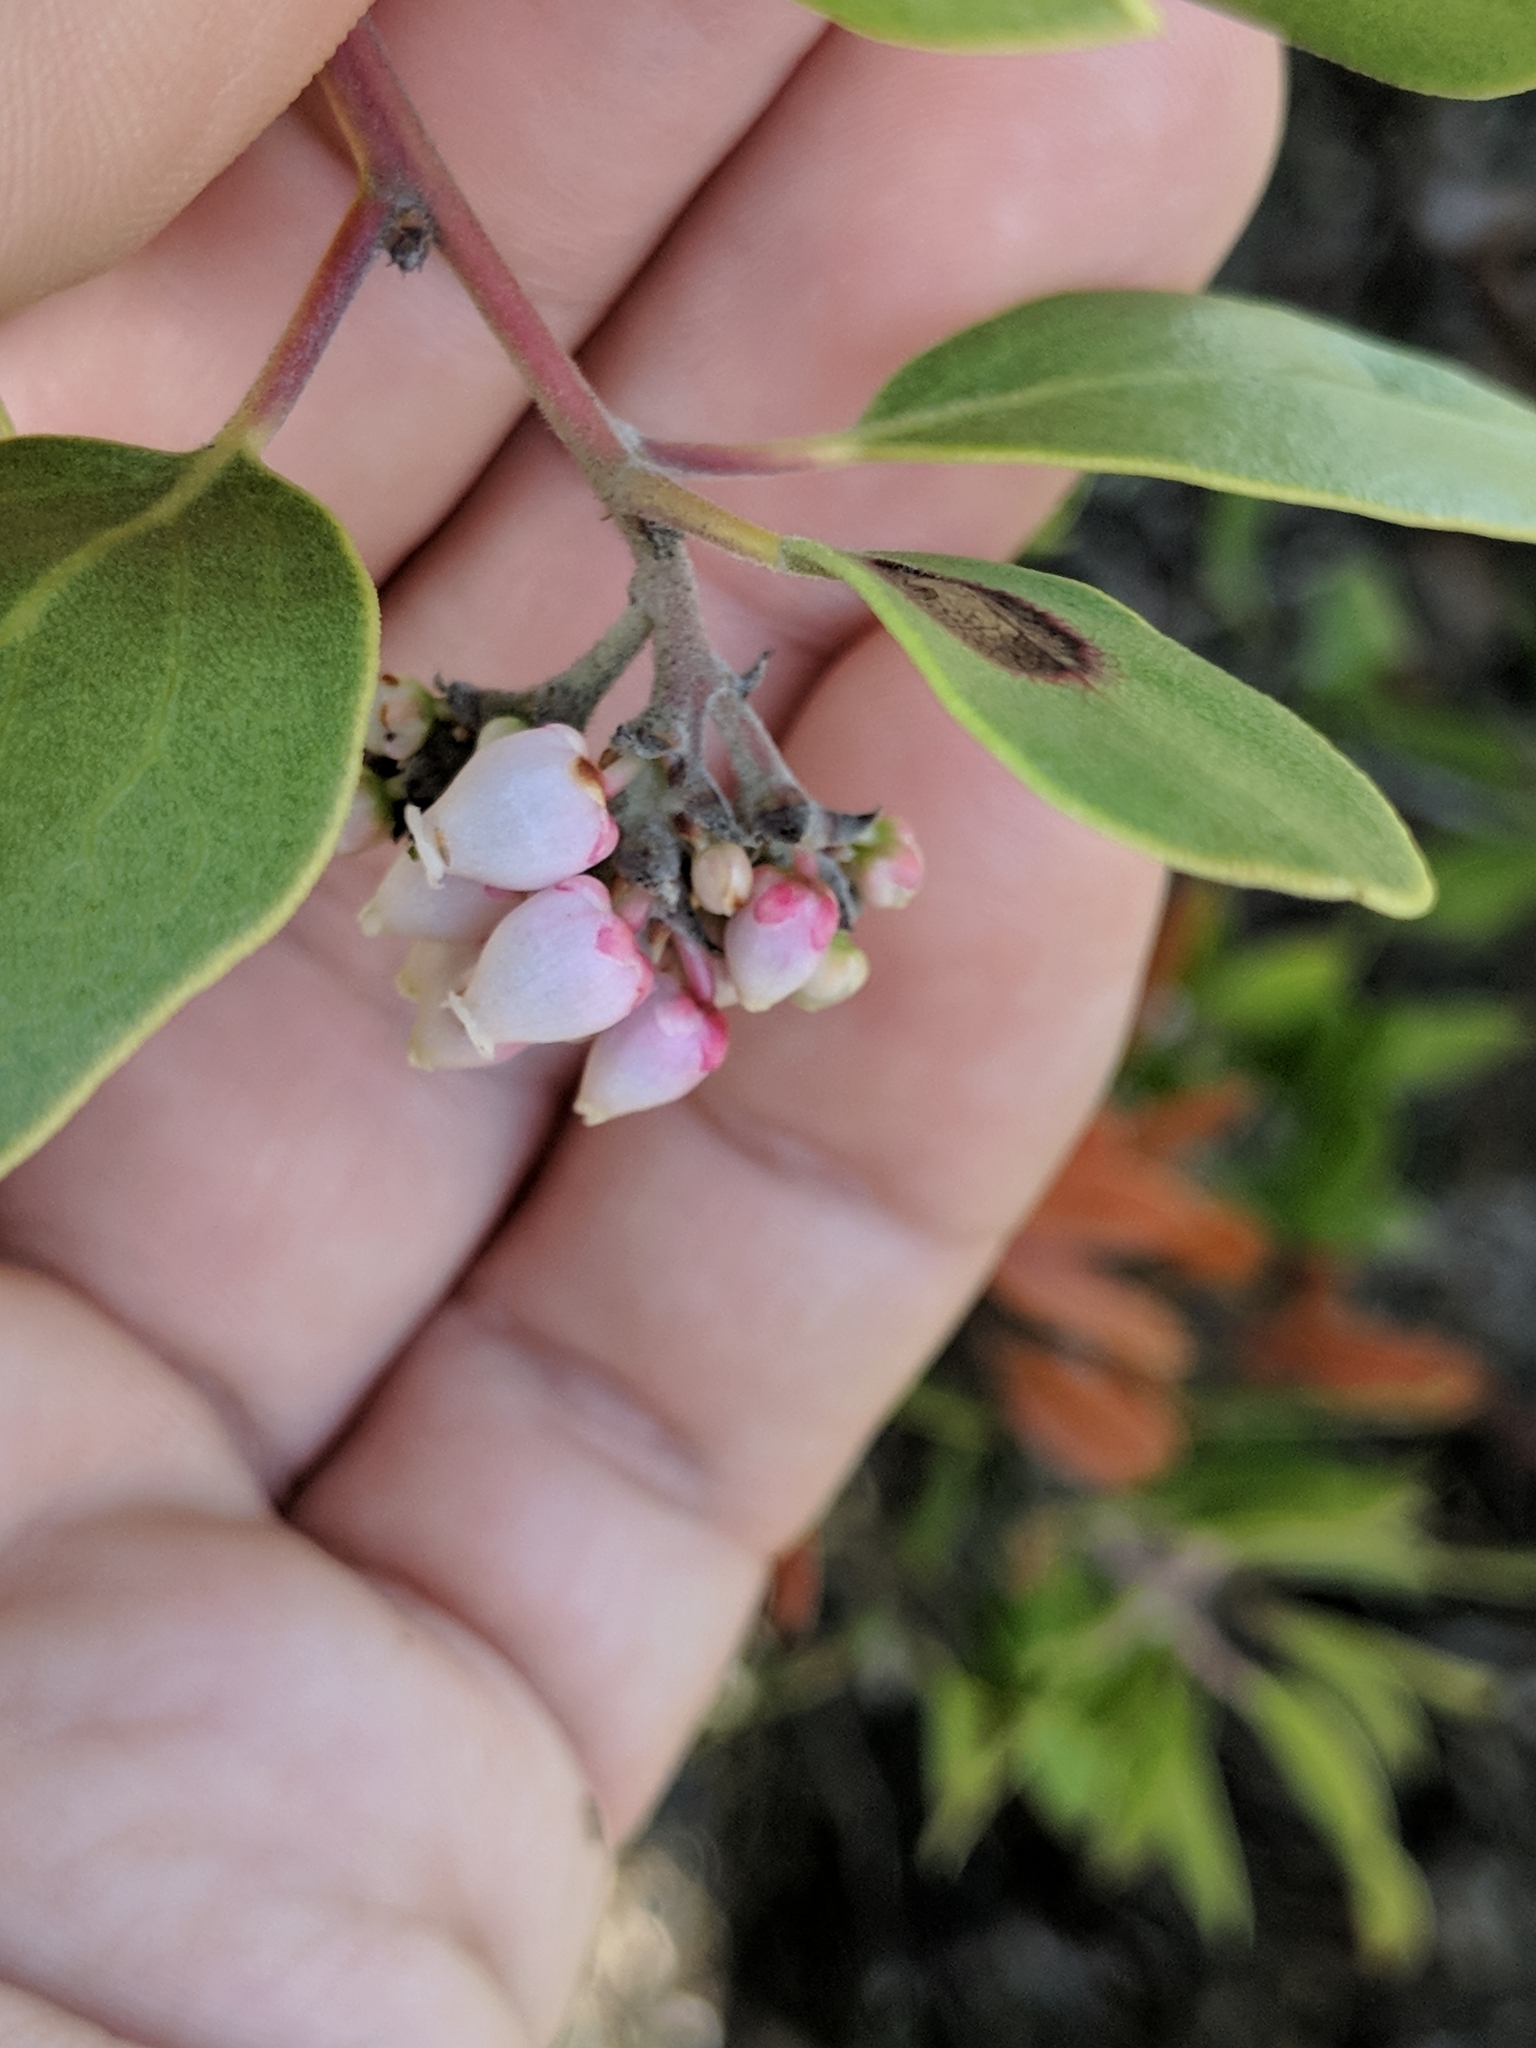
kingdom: Plantae
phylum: Tracheophyta
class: Magnoliopsida
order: Ericales
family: Ericaceae
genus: Arctostaphylos
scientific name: Arctostaphylos manzanita
